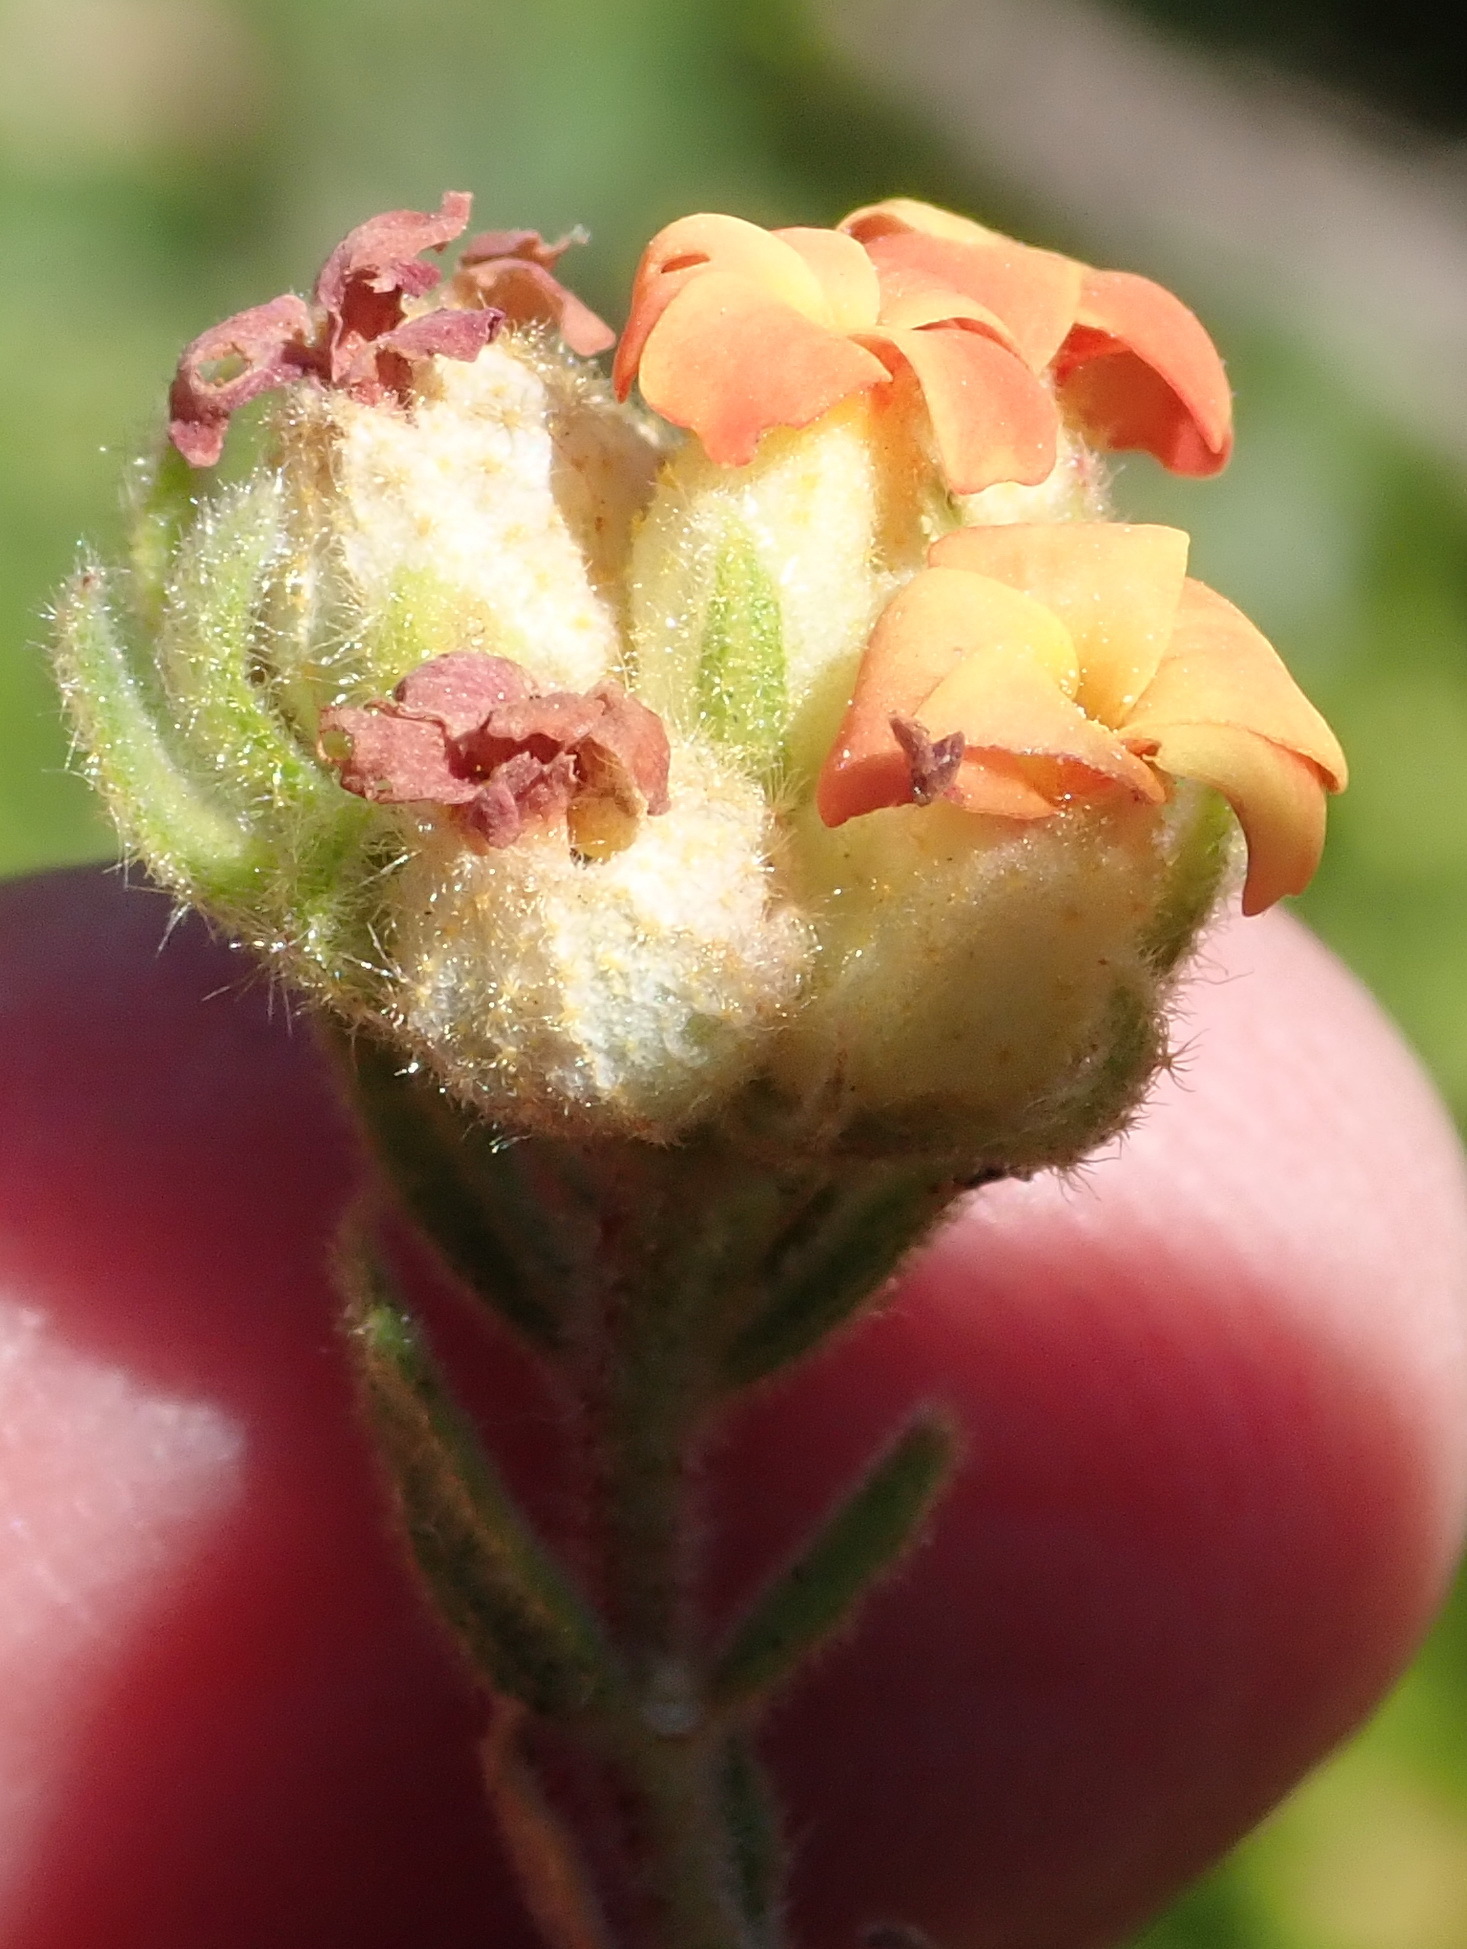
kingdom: Plantae
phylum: Tracheophyta
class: Magnoliopsida
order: Malvales
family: Malvaceae
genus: Hermannia
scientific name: Hermannia salviifolia
